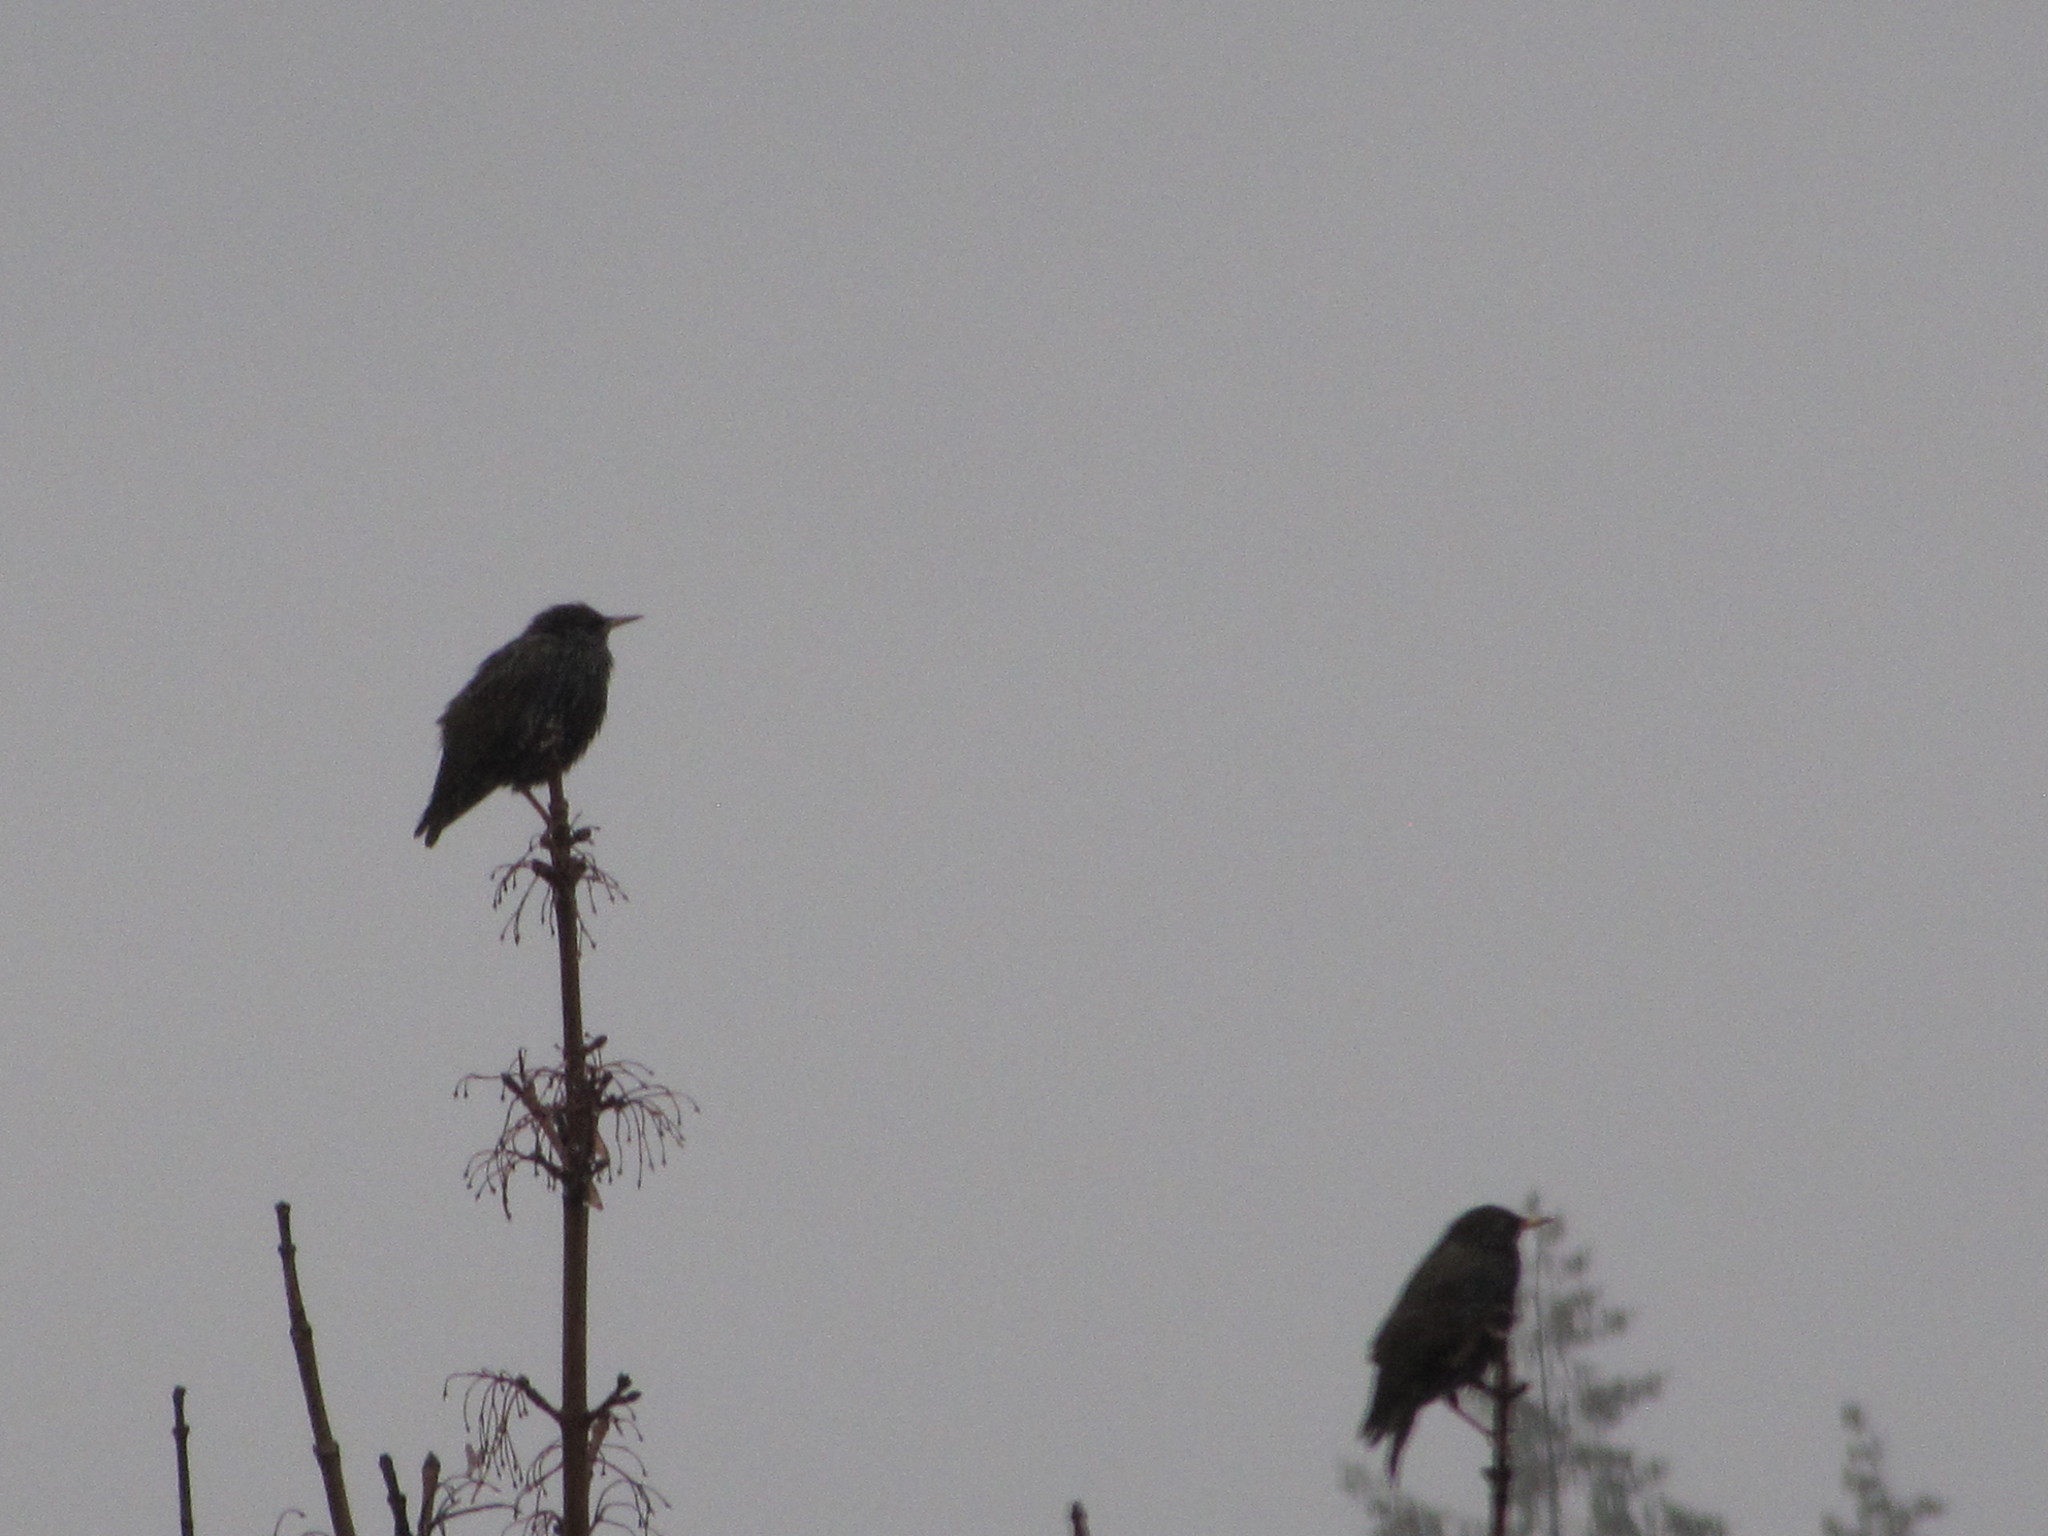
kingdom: Animalia
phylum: Chordata
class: Aves
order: Passeriformes
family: Sturnidae
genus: Sturnus
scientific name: Sturnus vulgaris
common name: Common starling
